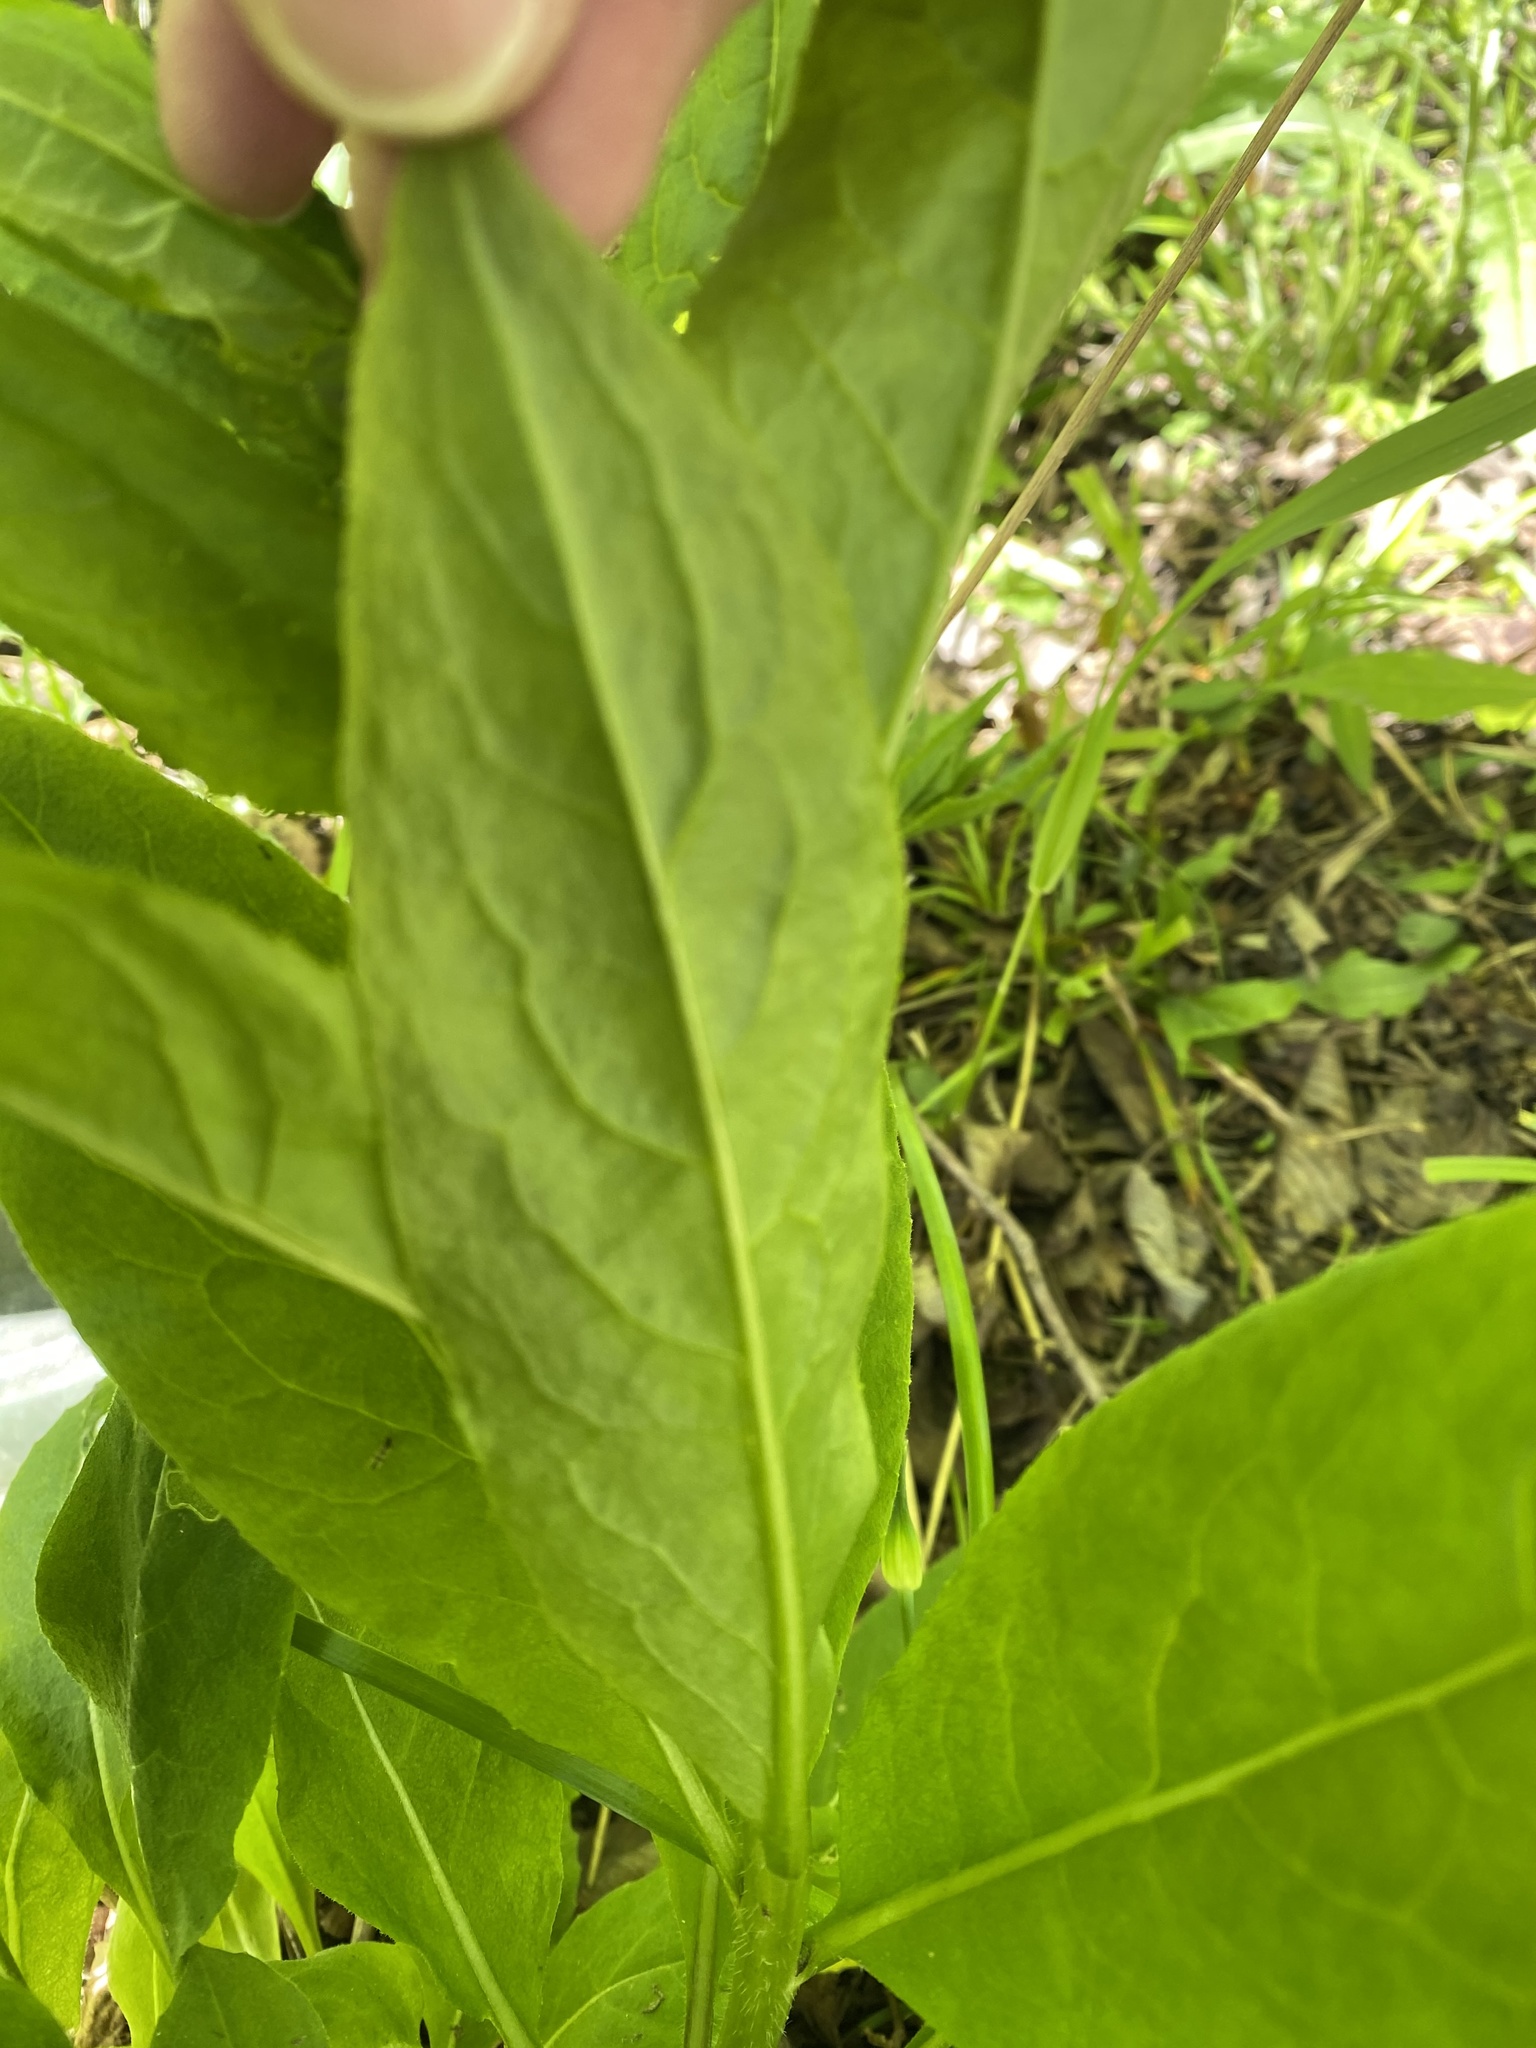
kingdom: Plantae
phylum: Tracheophyta
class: Magnoliopsida
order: Brassicales
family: Brassicaceae
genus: Hesperis
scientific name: Hesperis matronalis
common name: Dame's-violet
